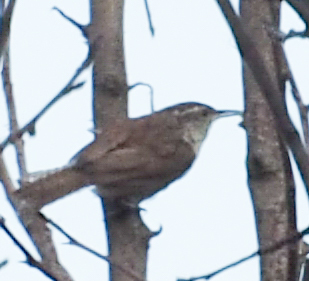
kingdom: Animalia
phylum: Chordata
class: Aves
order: Passeriformes
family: Troglodytidae
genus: Thryothorus
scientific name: Thryothorus ludovicianus
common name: Carolina wren
